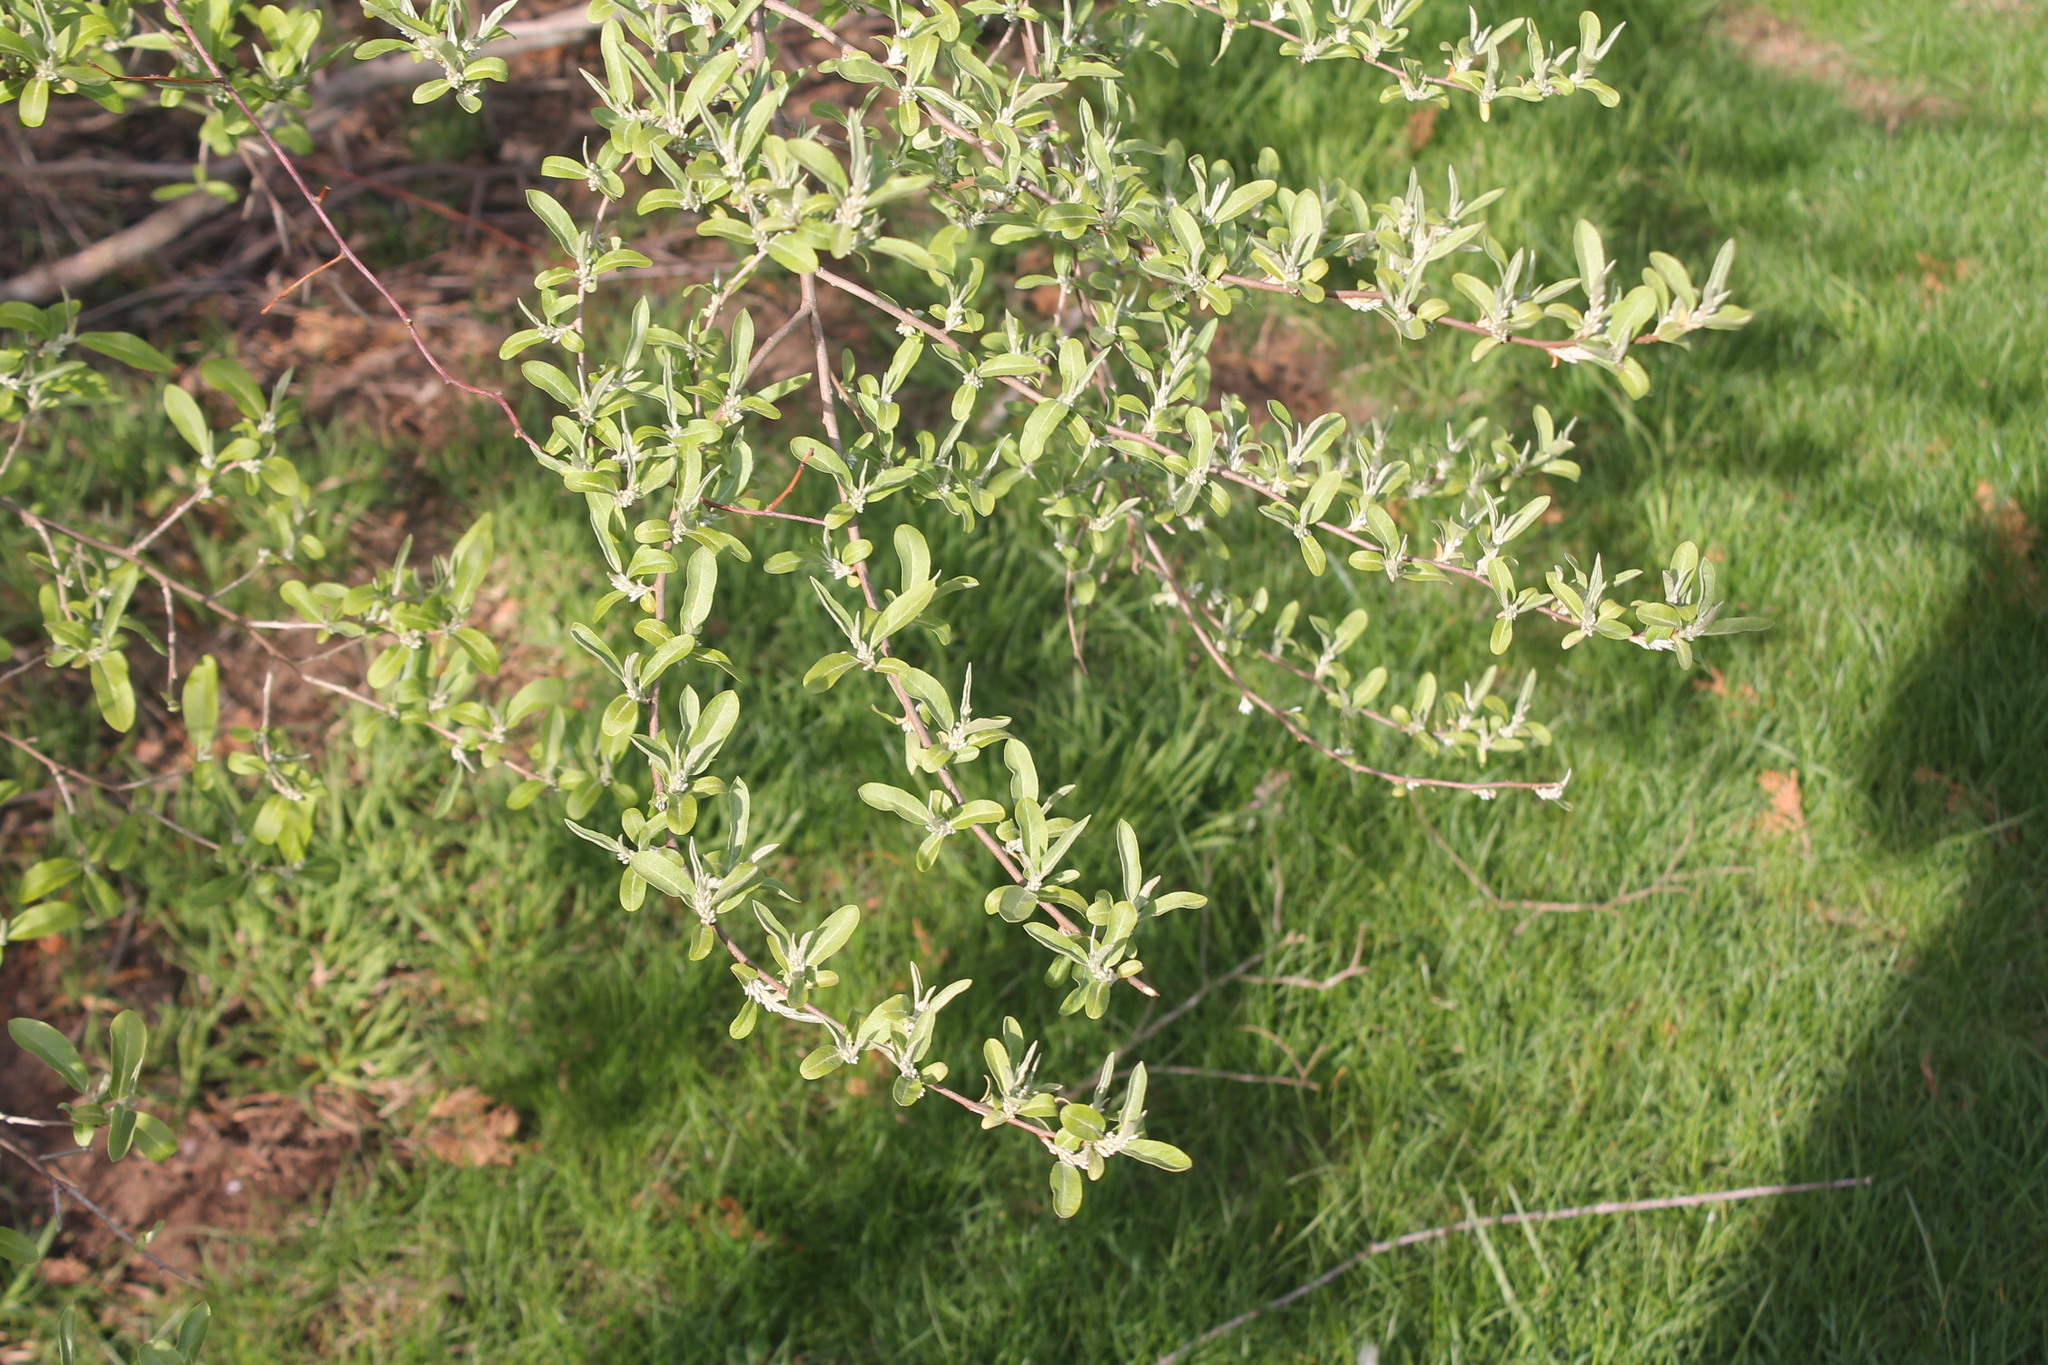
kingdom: Plantae
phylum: Tracheophyta
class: Magnoliopsida
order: Rosales
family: Elaeagnaceae
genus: Elaeagnus
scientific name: Elaeagnus umbellata
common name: Autumn olive
